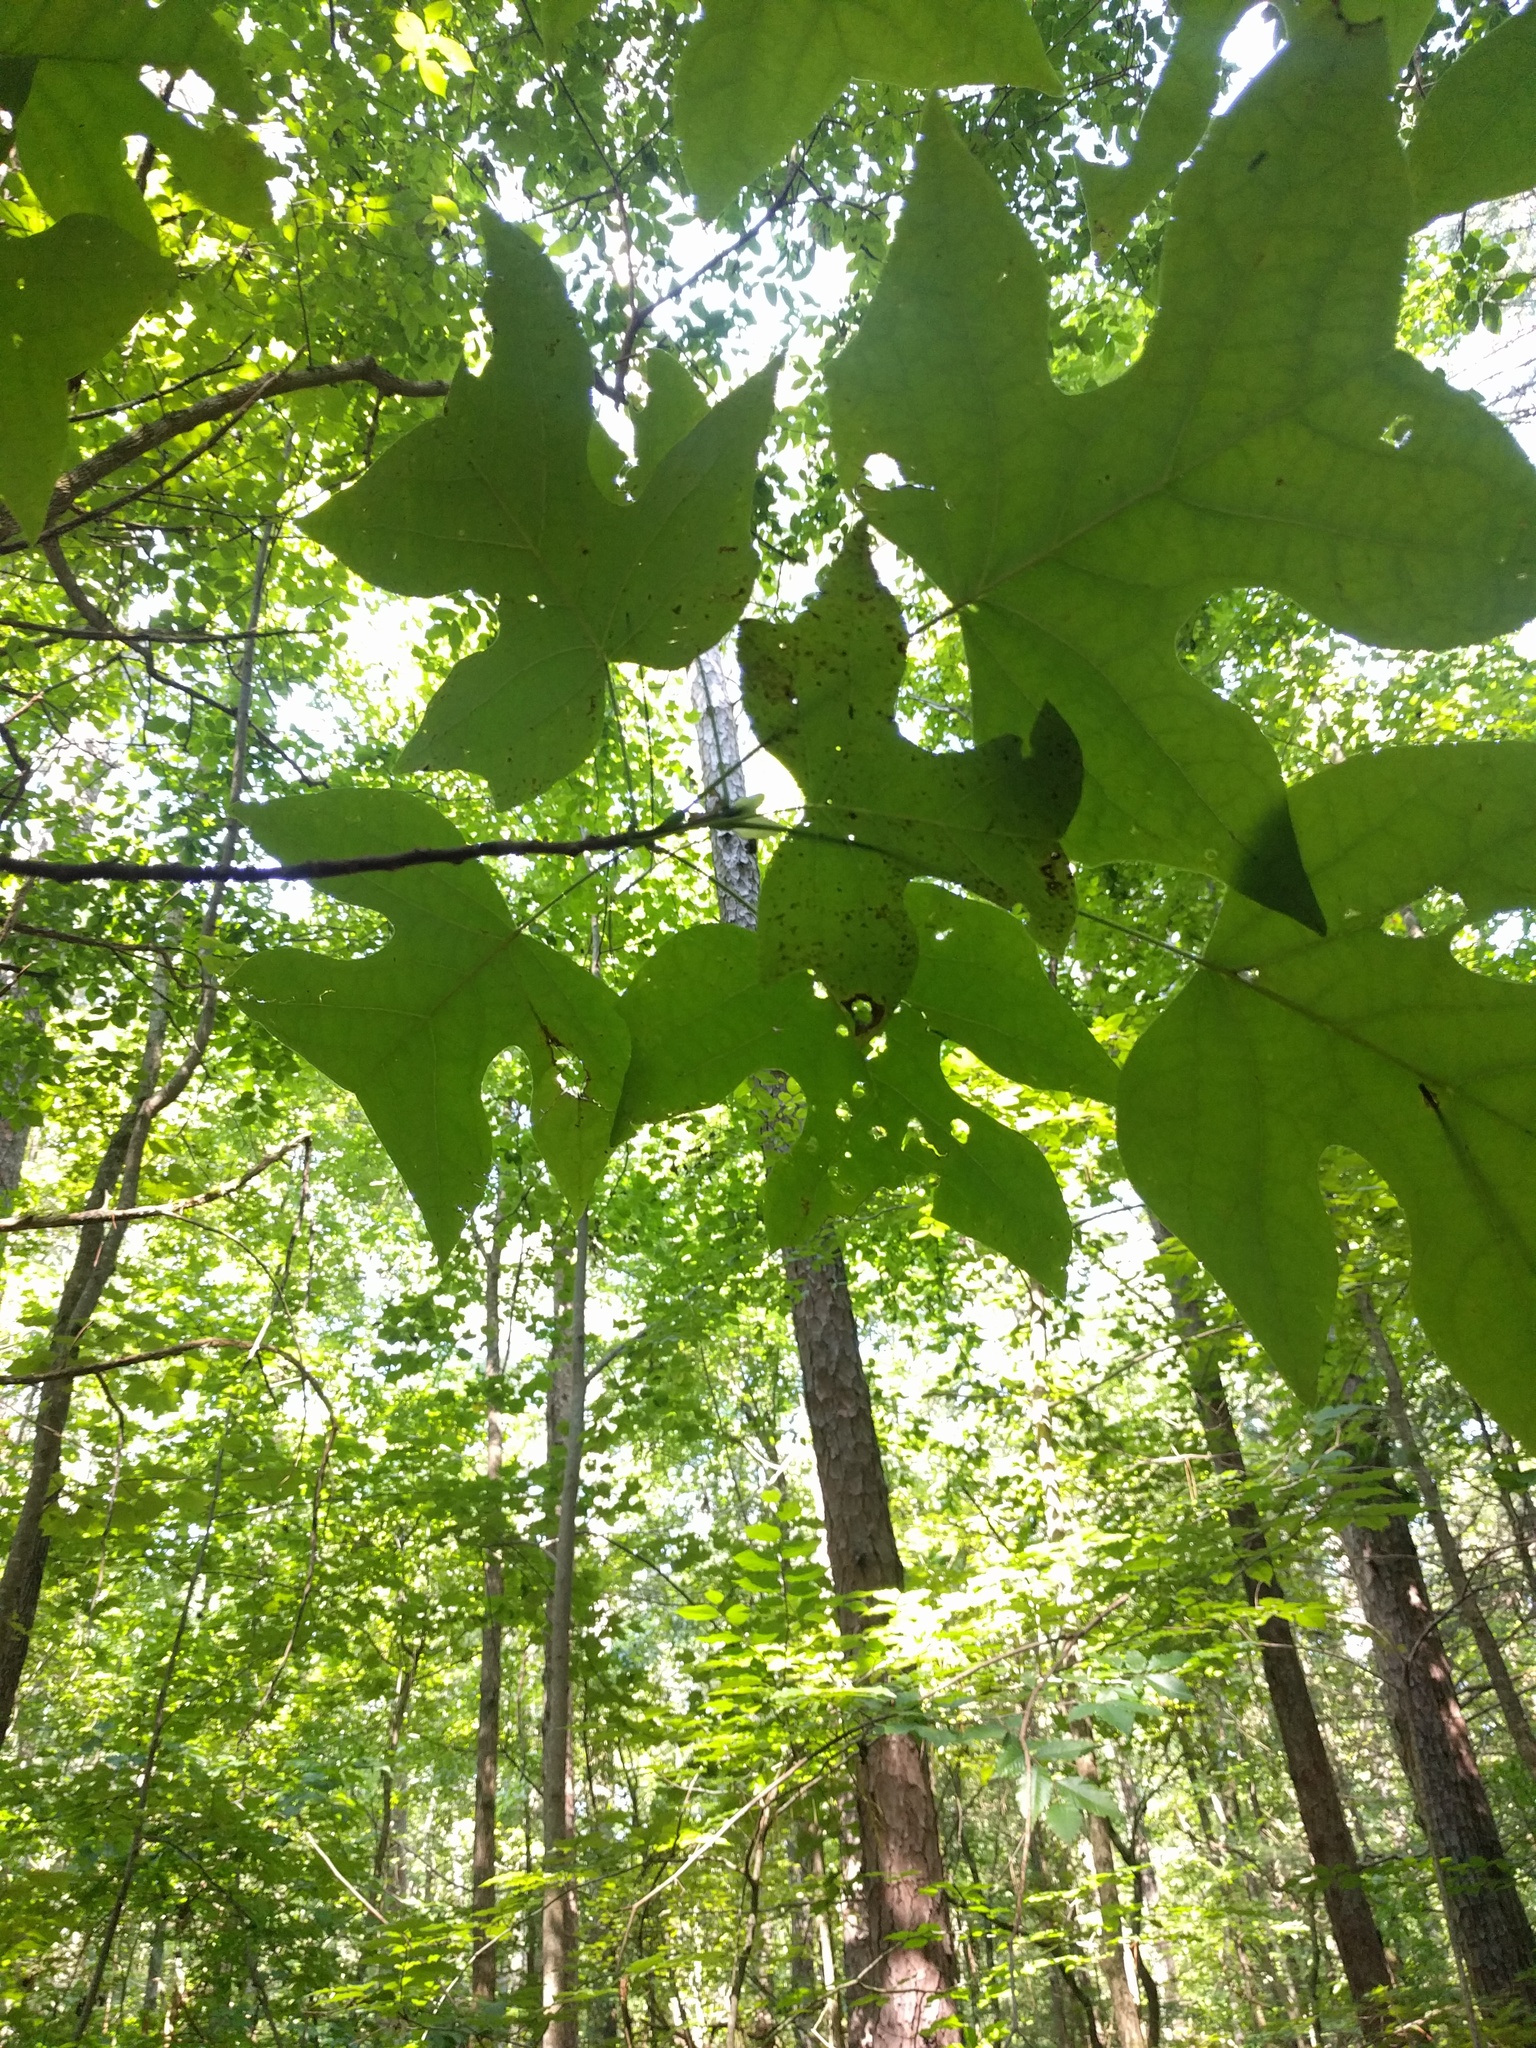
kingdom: Plantae
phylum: Tracheophyta
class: Magnoliopsida
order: Magnoliales
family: Magnoliaceae
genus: Liriodendron
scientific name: Liriodendron tulipifera
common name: Tulip tree
